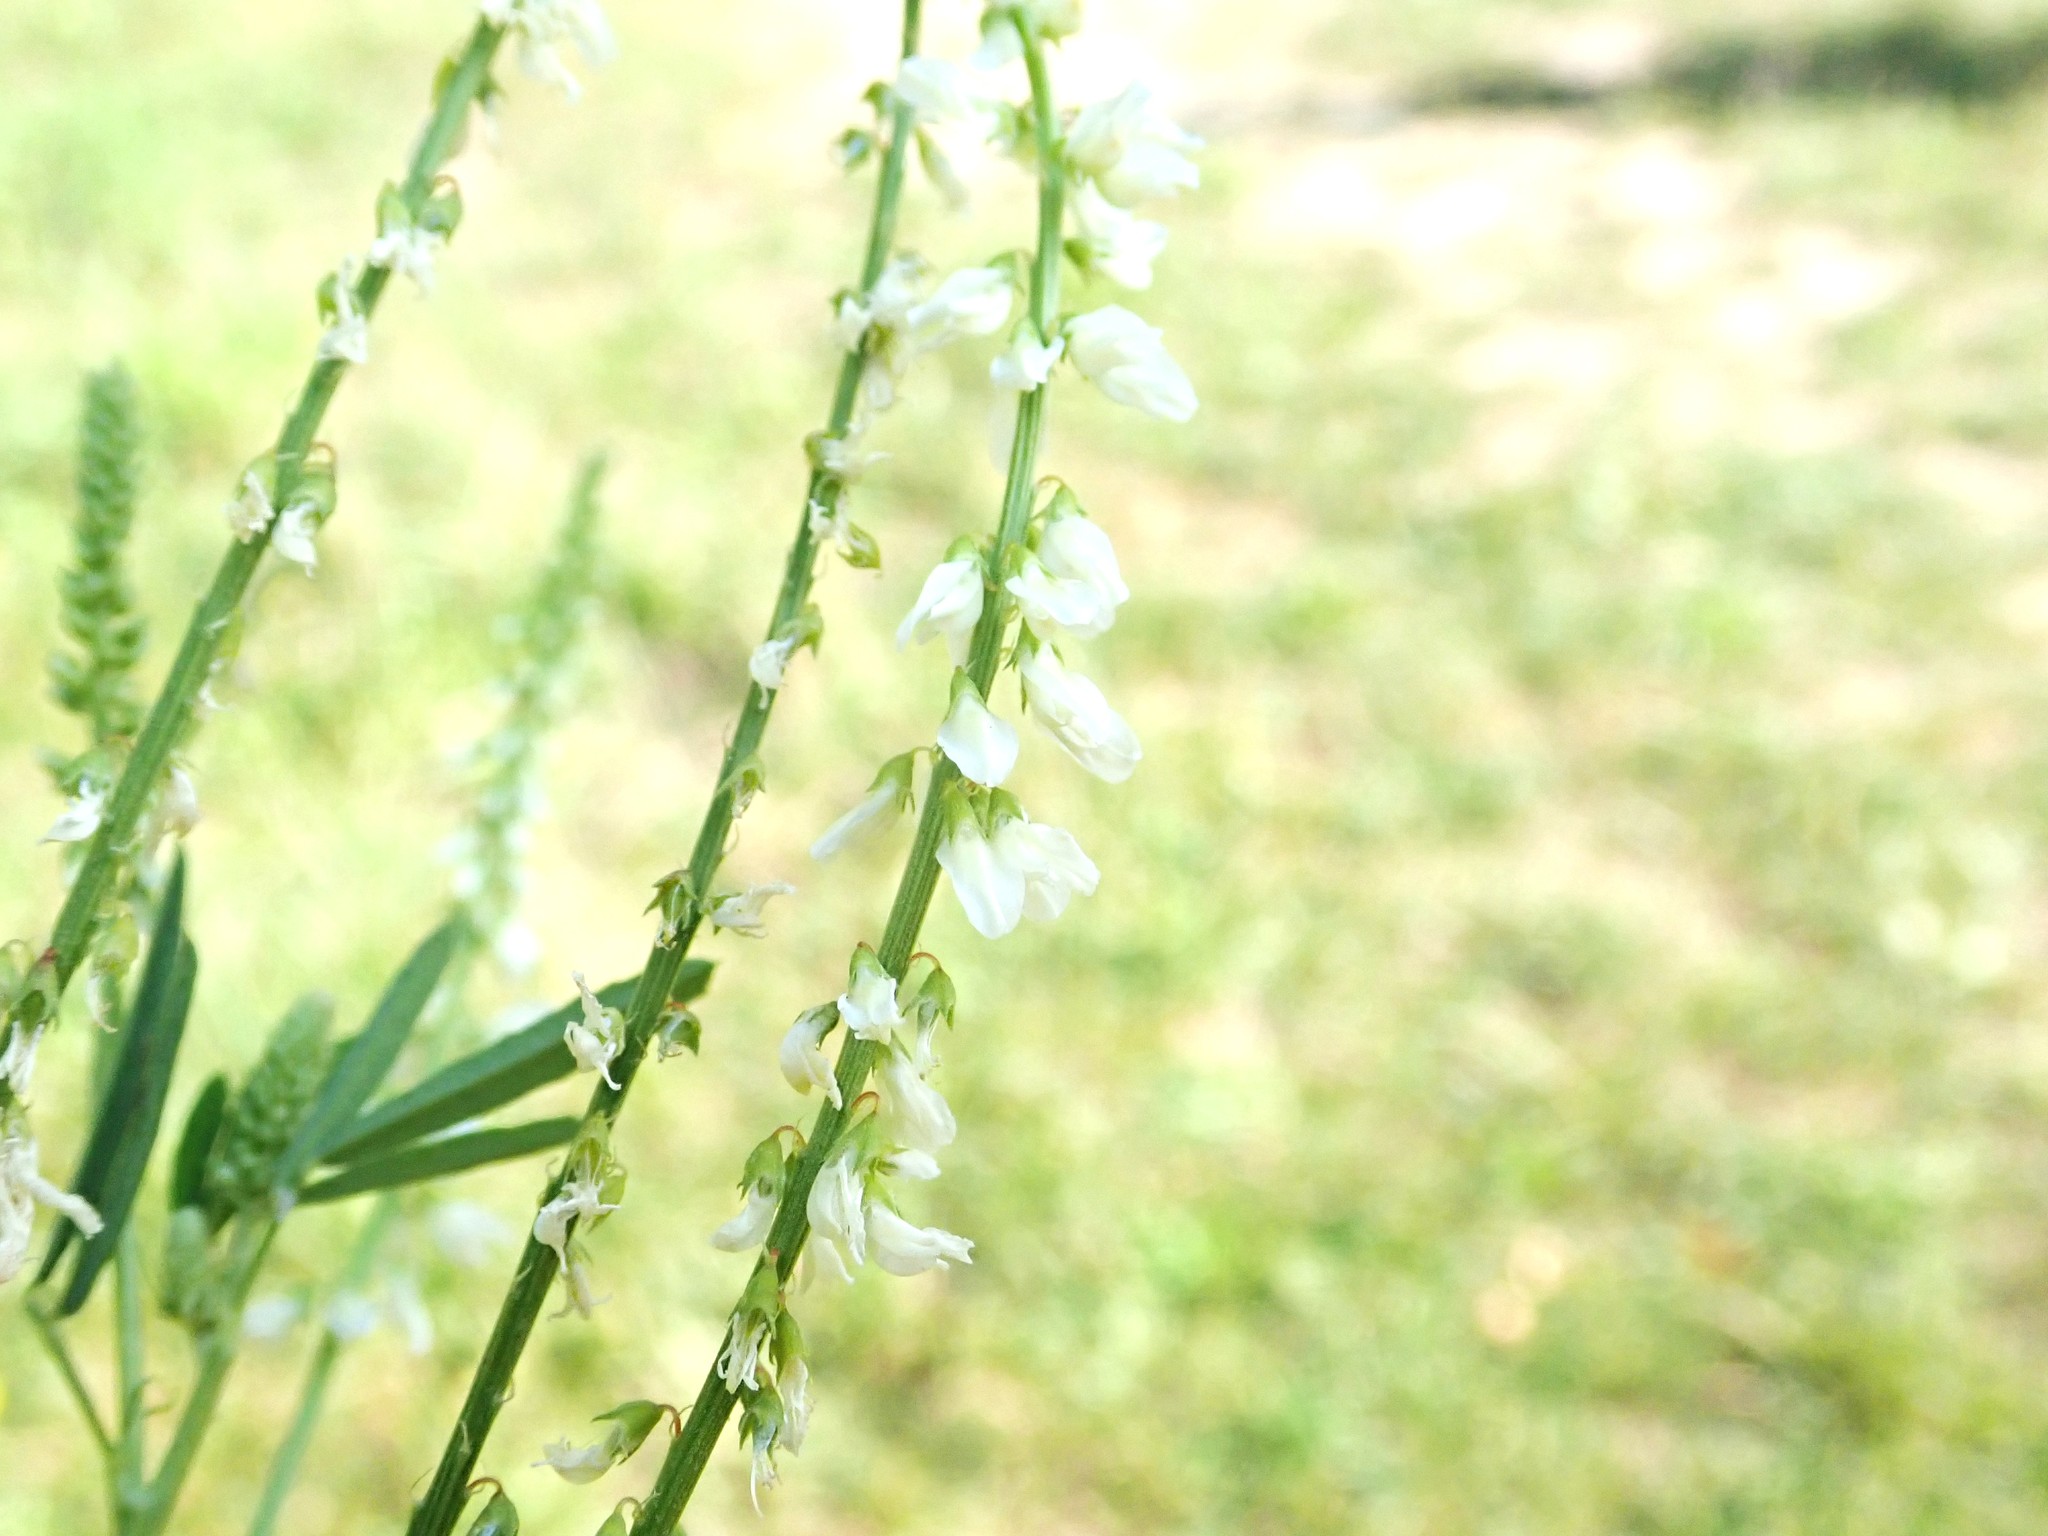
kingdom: Plantae
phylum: Tracheophyta
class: Magnoliopsida
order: Fabales
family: Fabaceae
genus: Melilotus
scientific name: Melilotus albus
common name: White melilot
